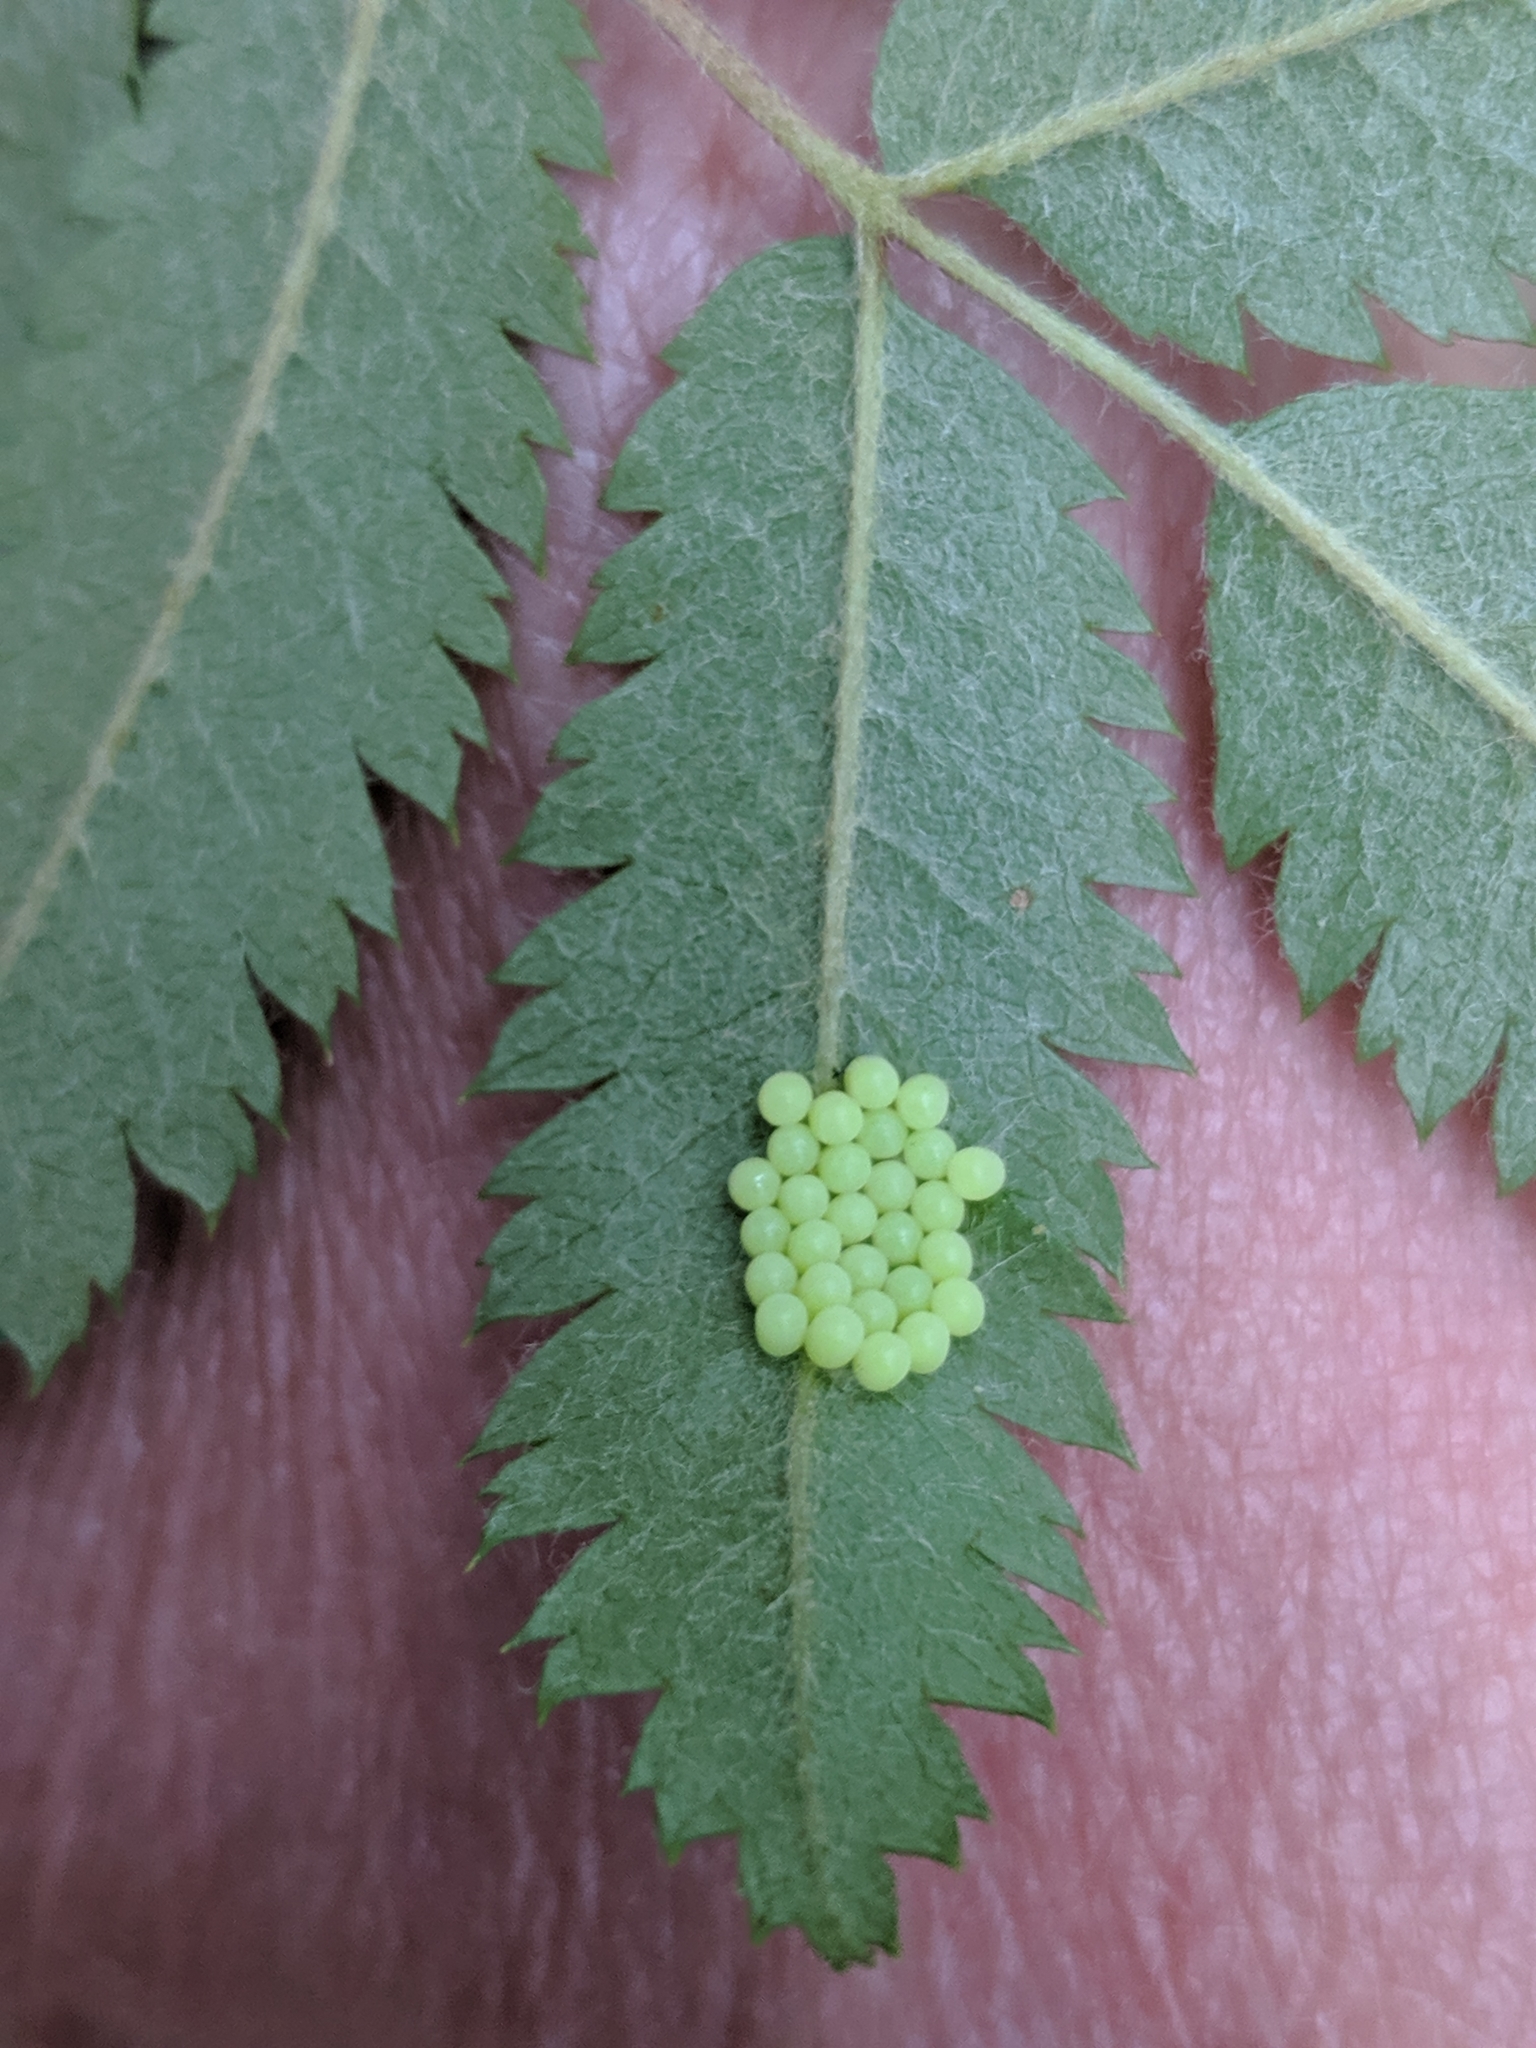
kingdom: Animalia
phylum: Arthropoda
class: Insecta
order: Hemiptera
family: Pentatomidae
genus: Palomena
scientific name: Palomena prasina
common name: Green shieldbug
